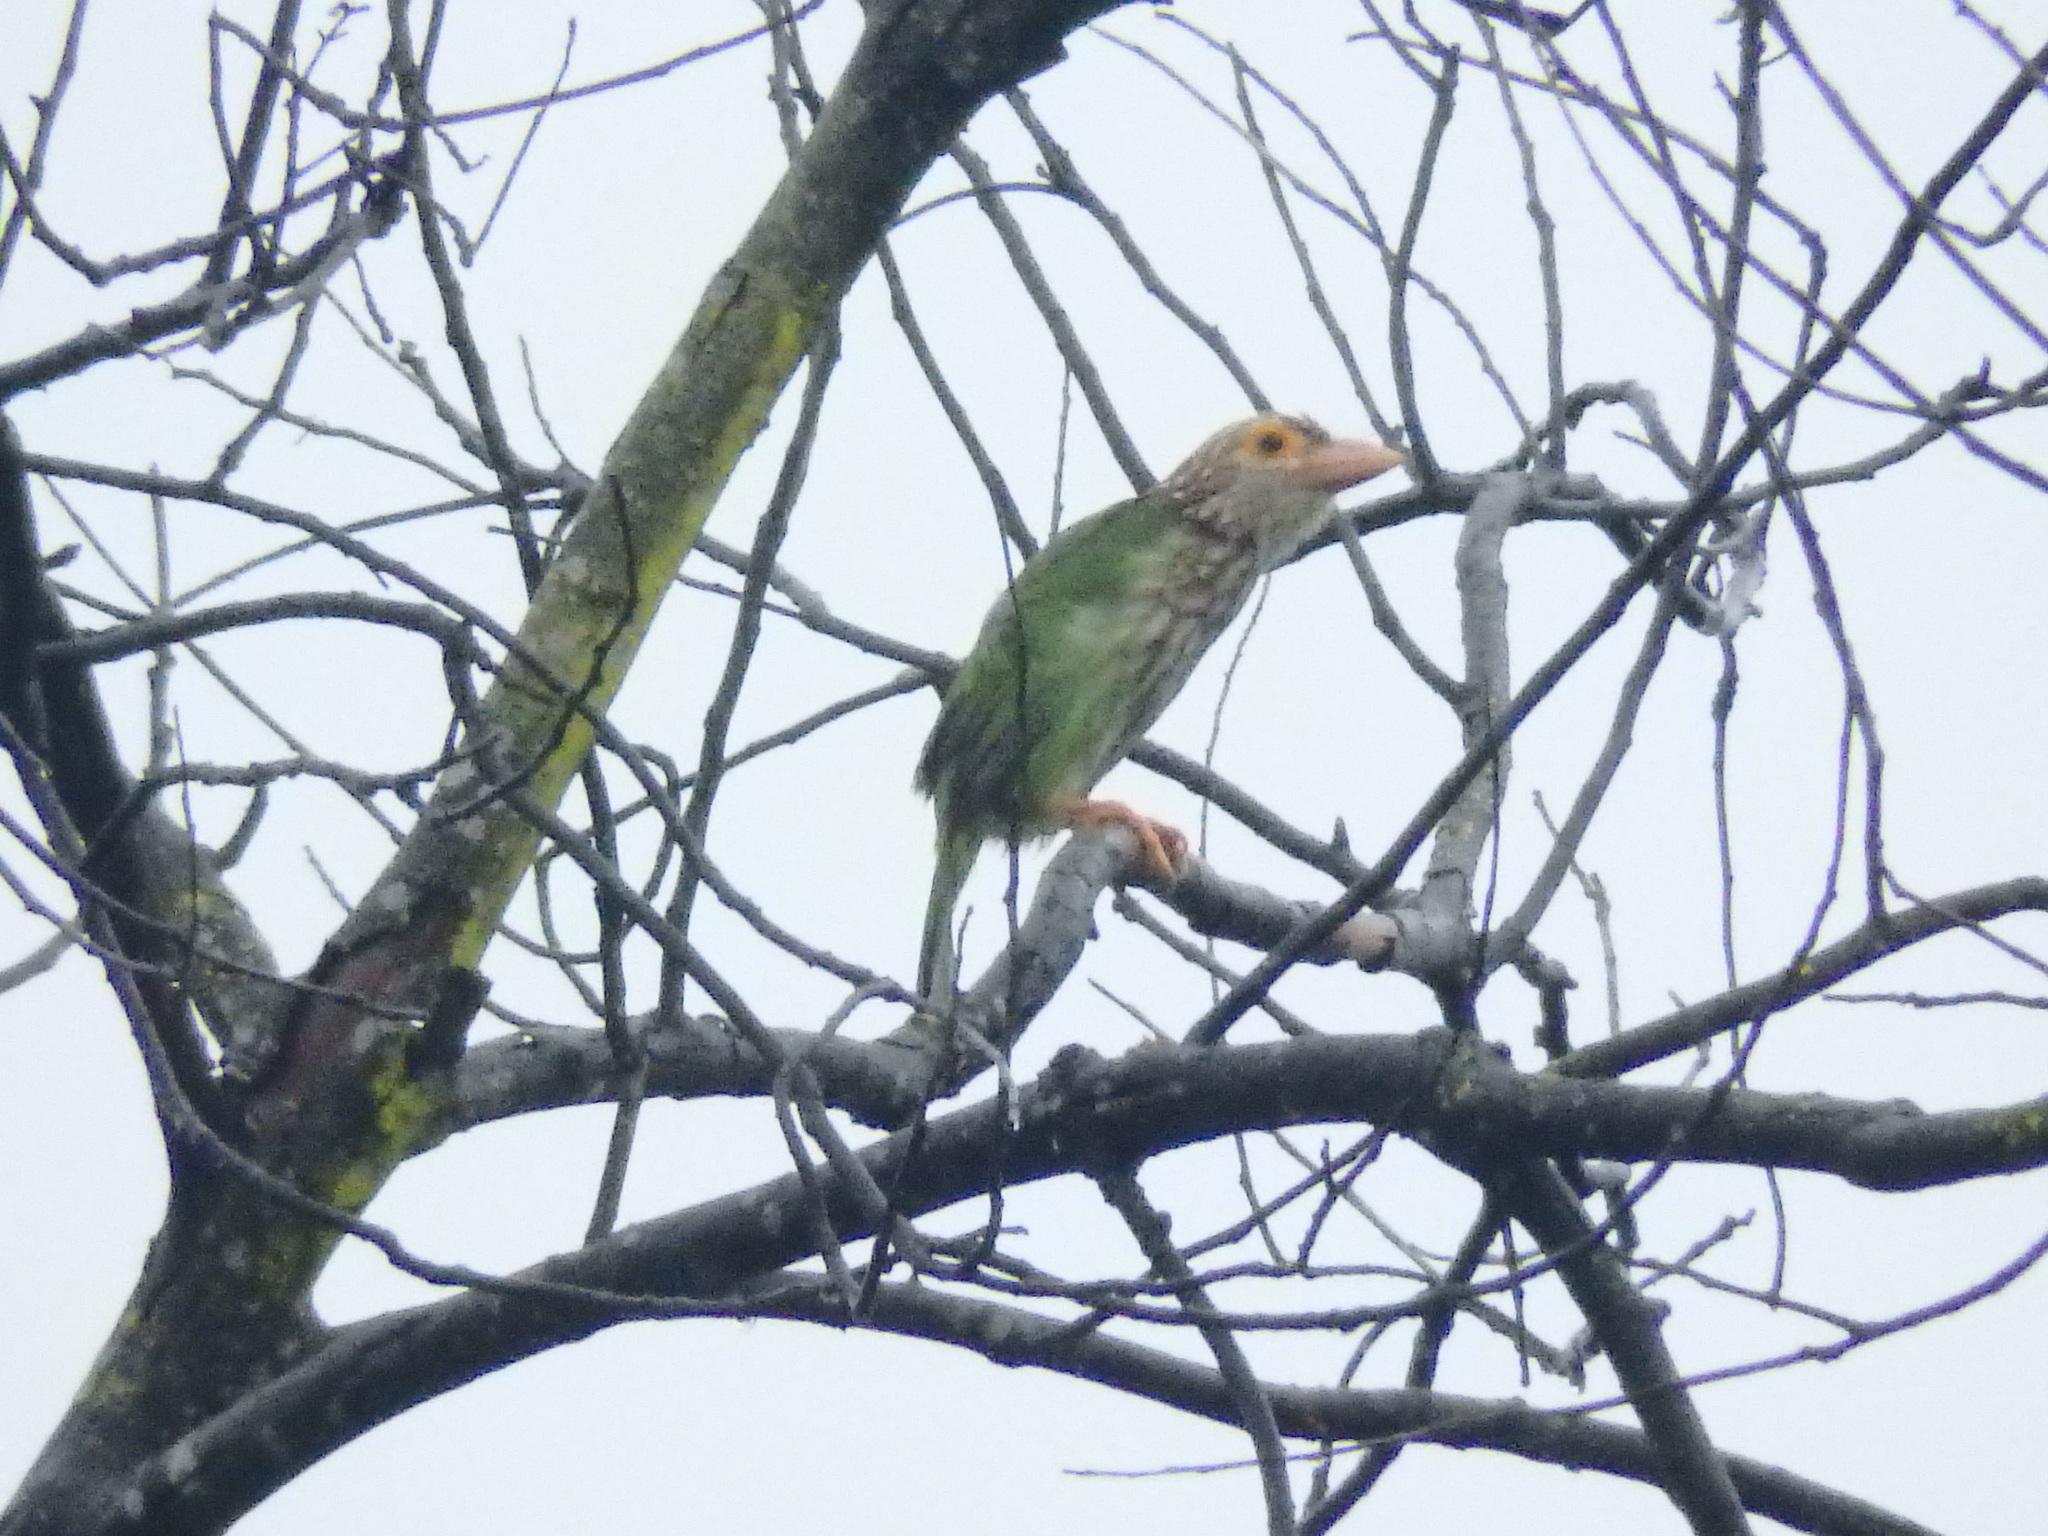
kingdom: Animalia
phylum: Chordata
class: Aves
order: Piciformes
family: Megalaimidae
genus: Psilopogon
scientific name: Psilopogon lineatus
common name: Lineated barbet
